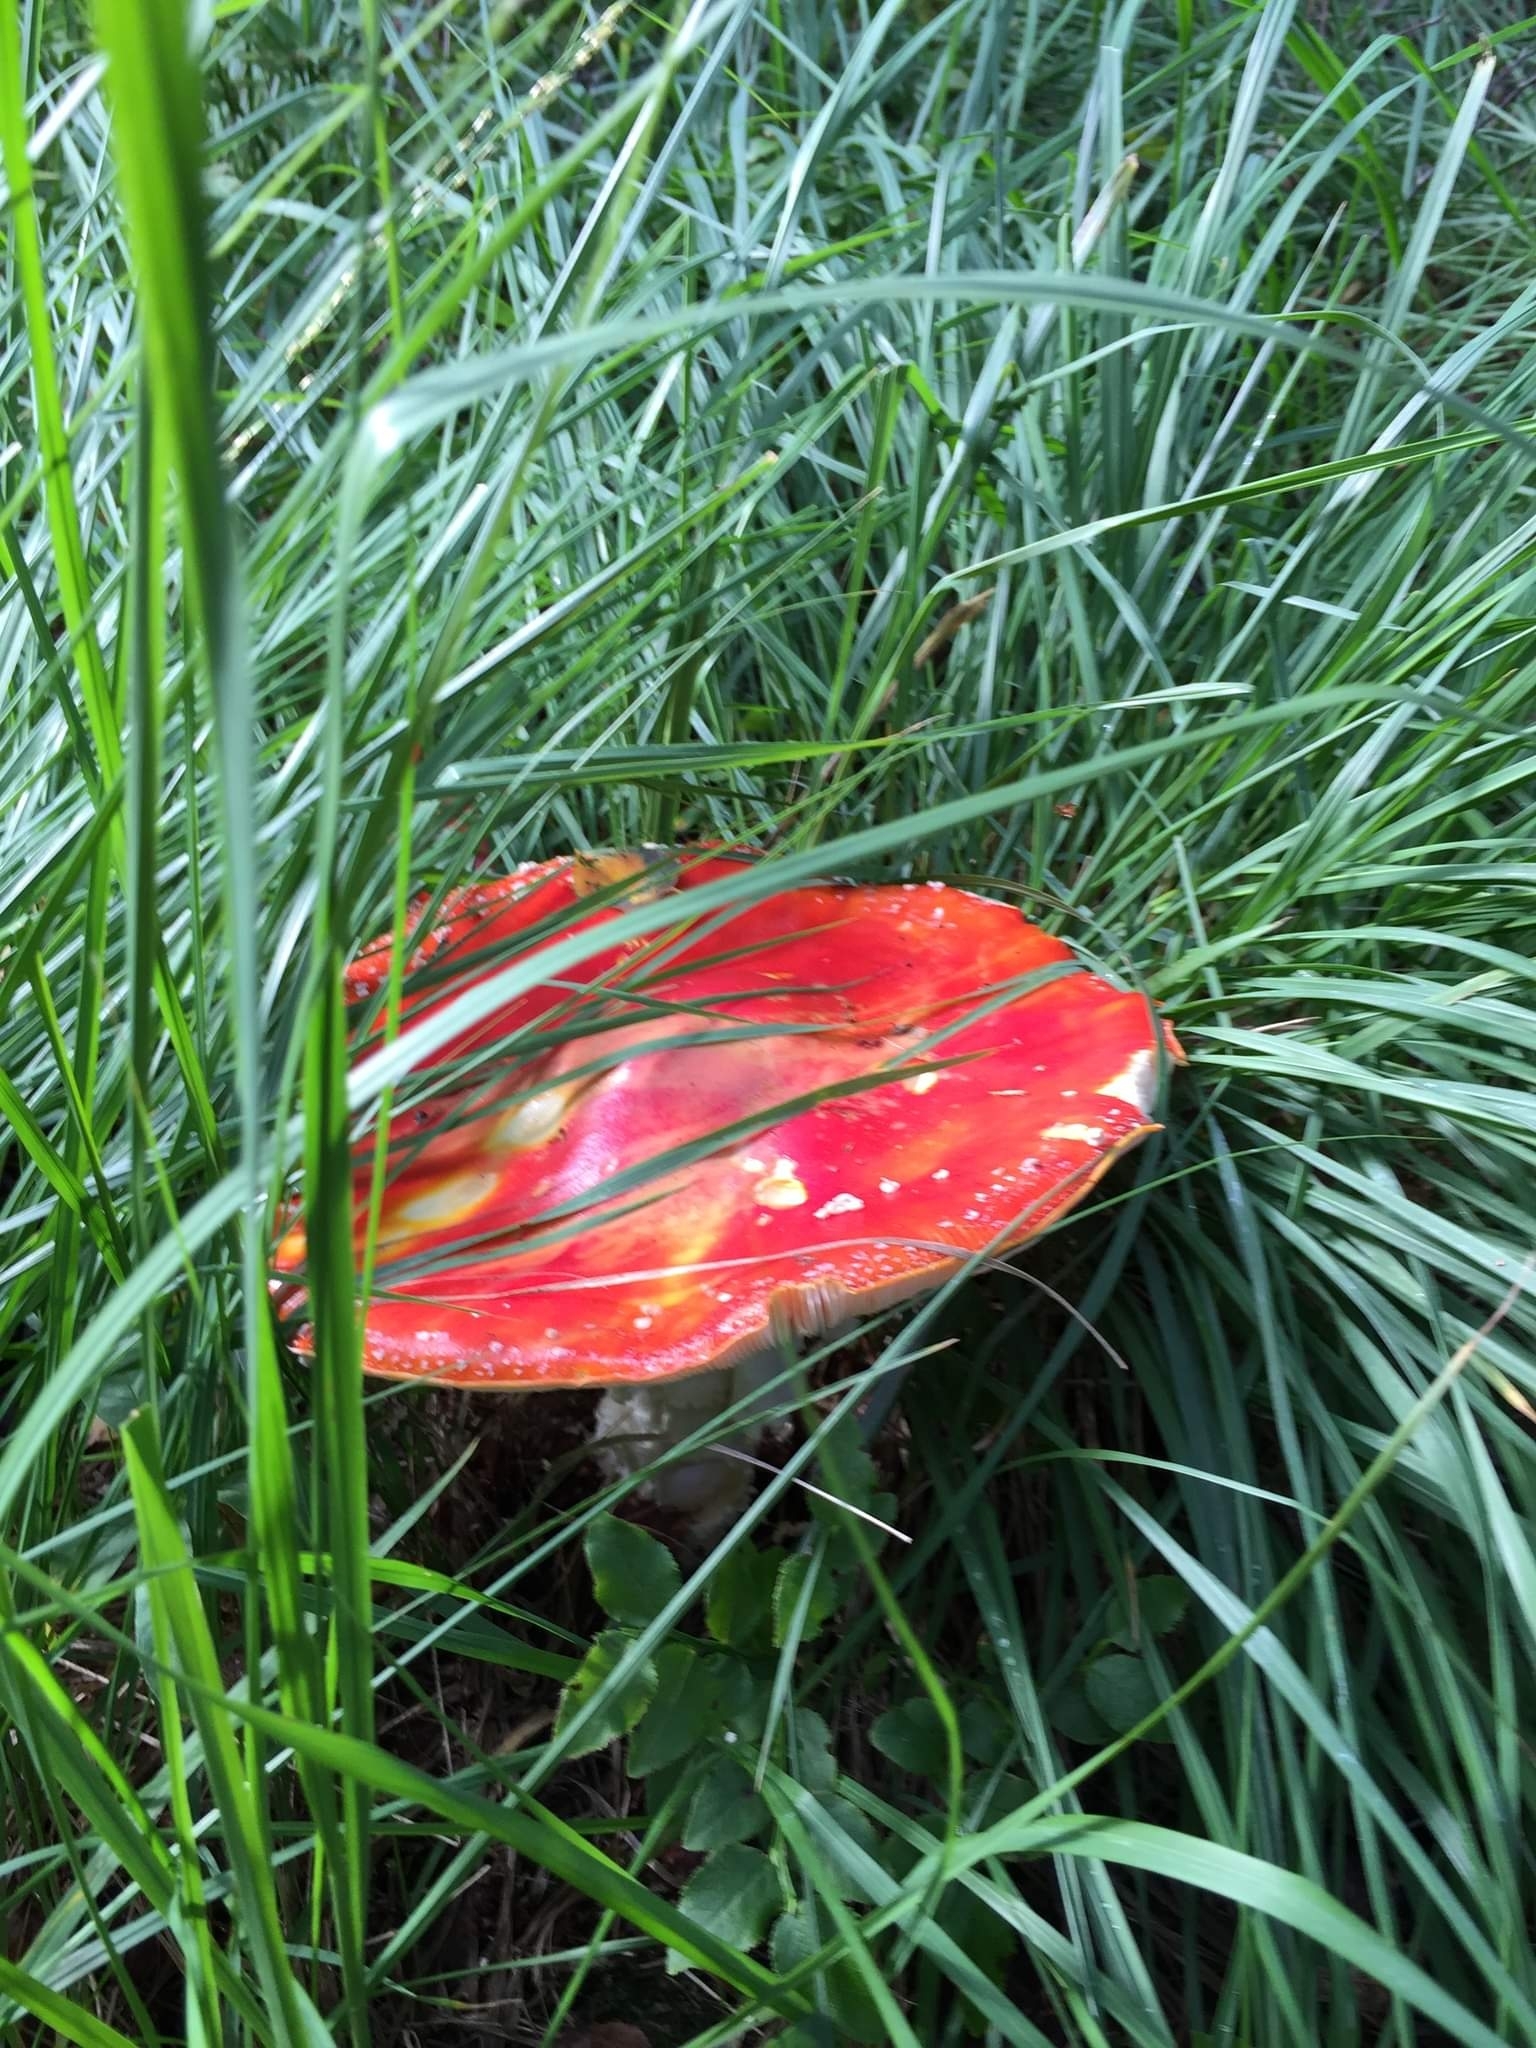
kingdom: Fungi
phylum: Basidiomycota
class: Agaricomycetes
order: Agaricales
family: Amanitaceae
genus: Amanita
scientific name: Amanita muscaria
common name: Fly agaric
